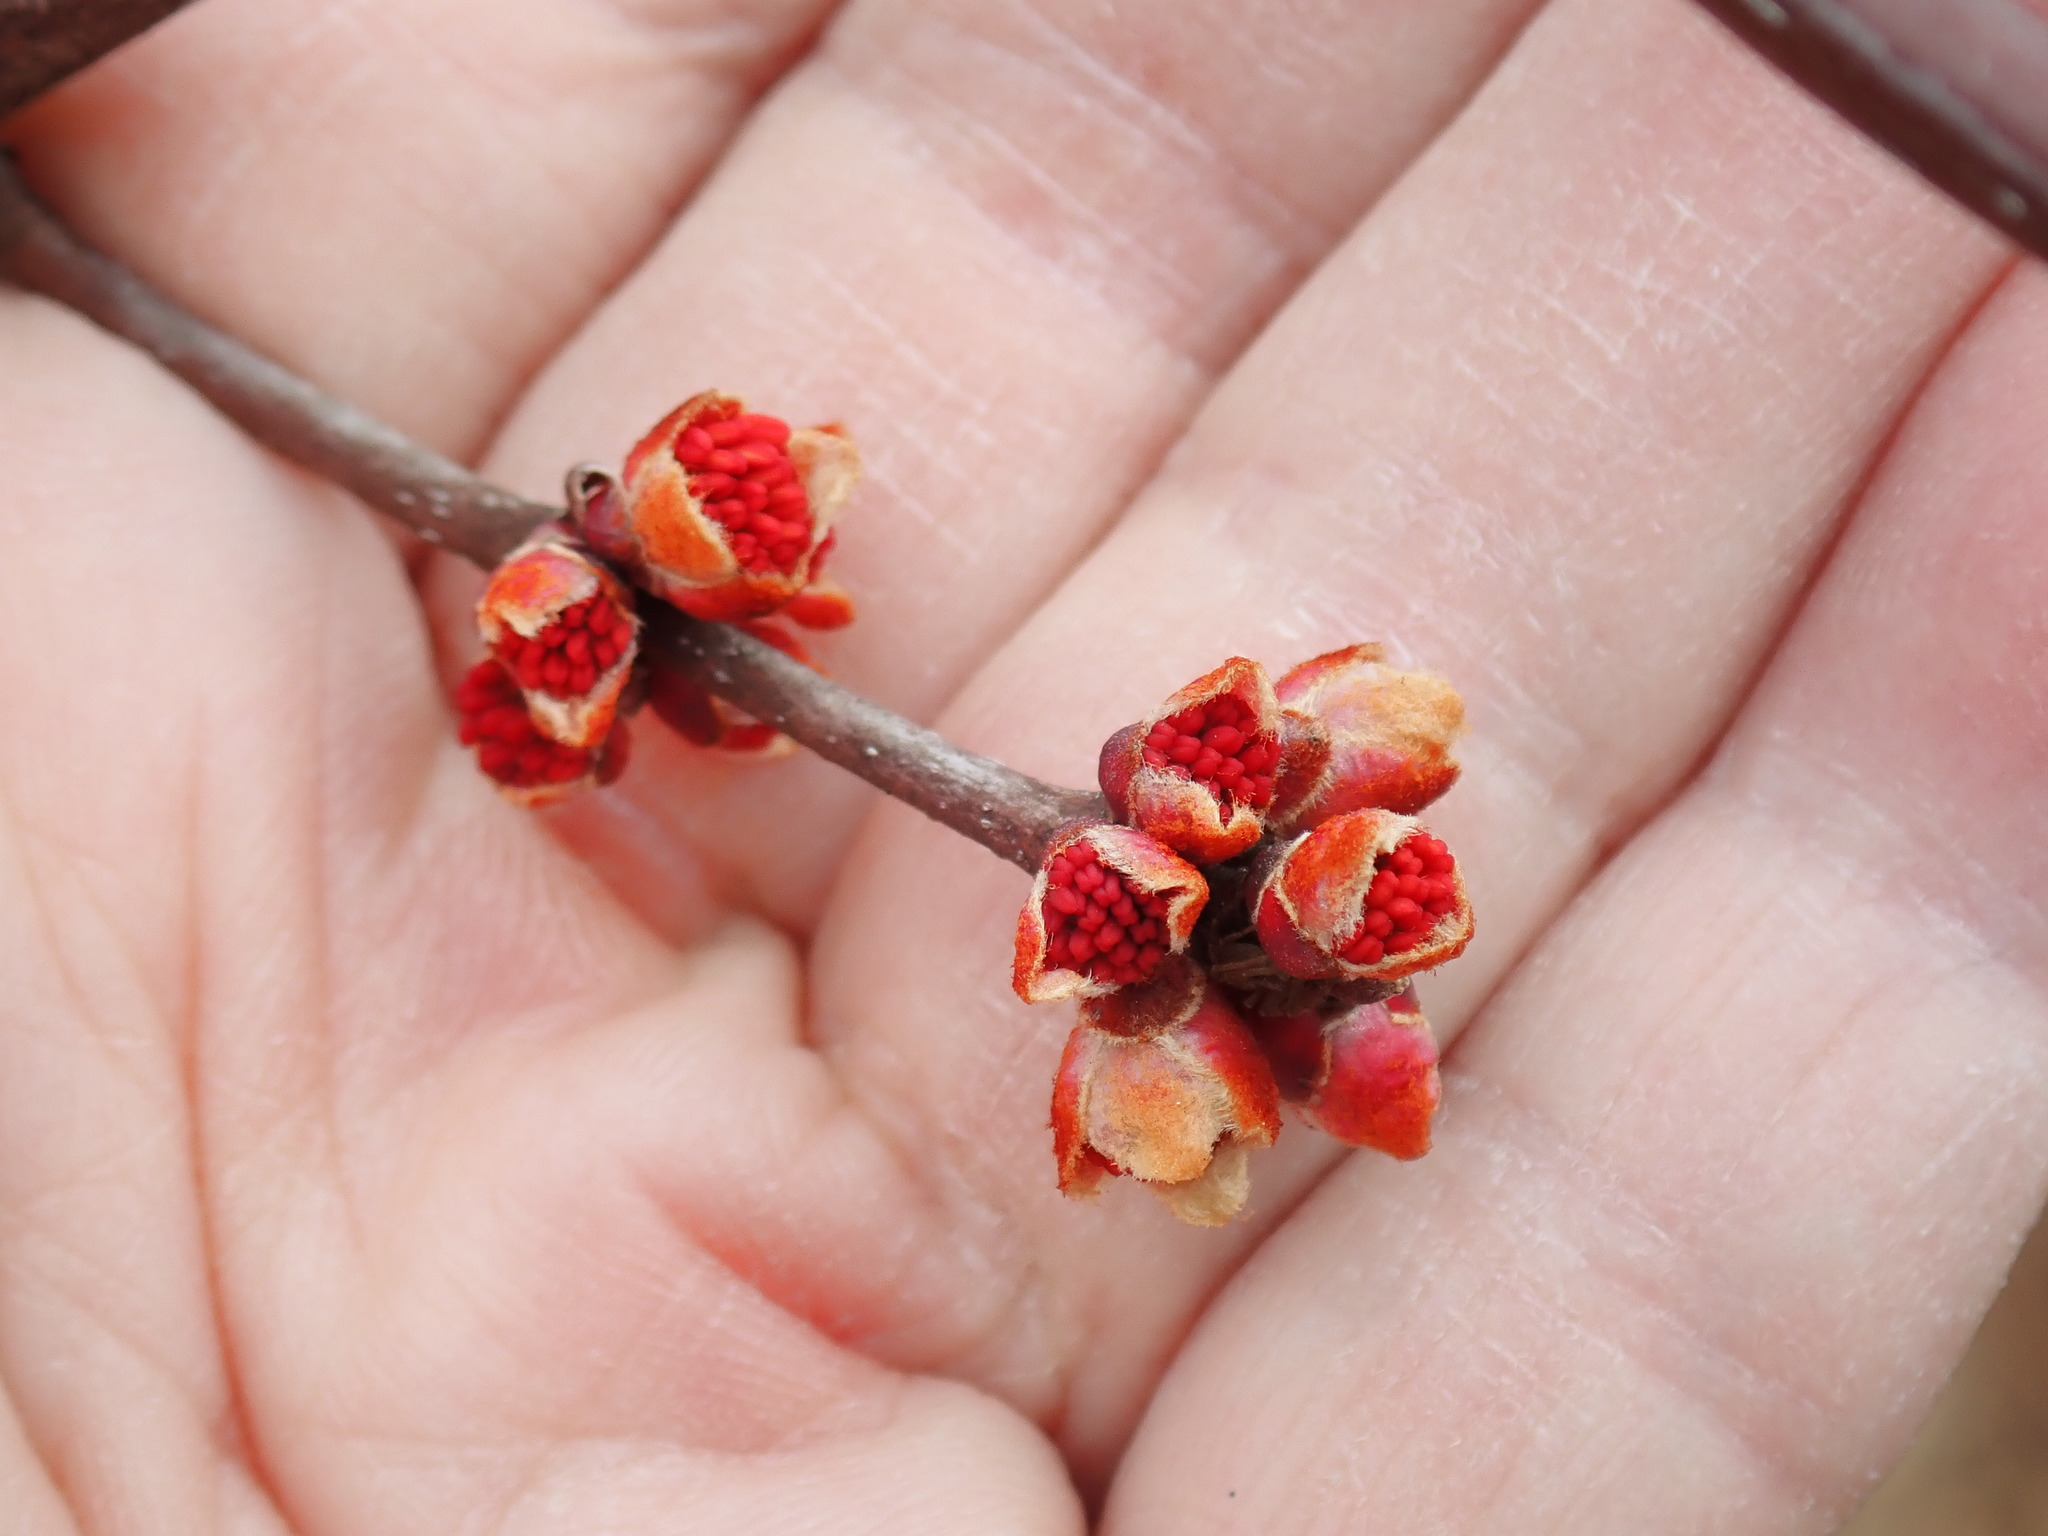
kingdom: Plantae
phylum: Tracheophyta
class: Magnoliopsida
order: Sapindales
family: Sapindaceae
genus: Acer
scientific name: Acer rubrum
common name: Red maple
